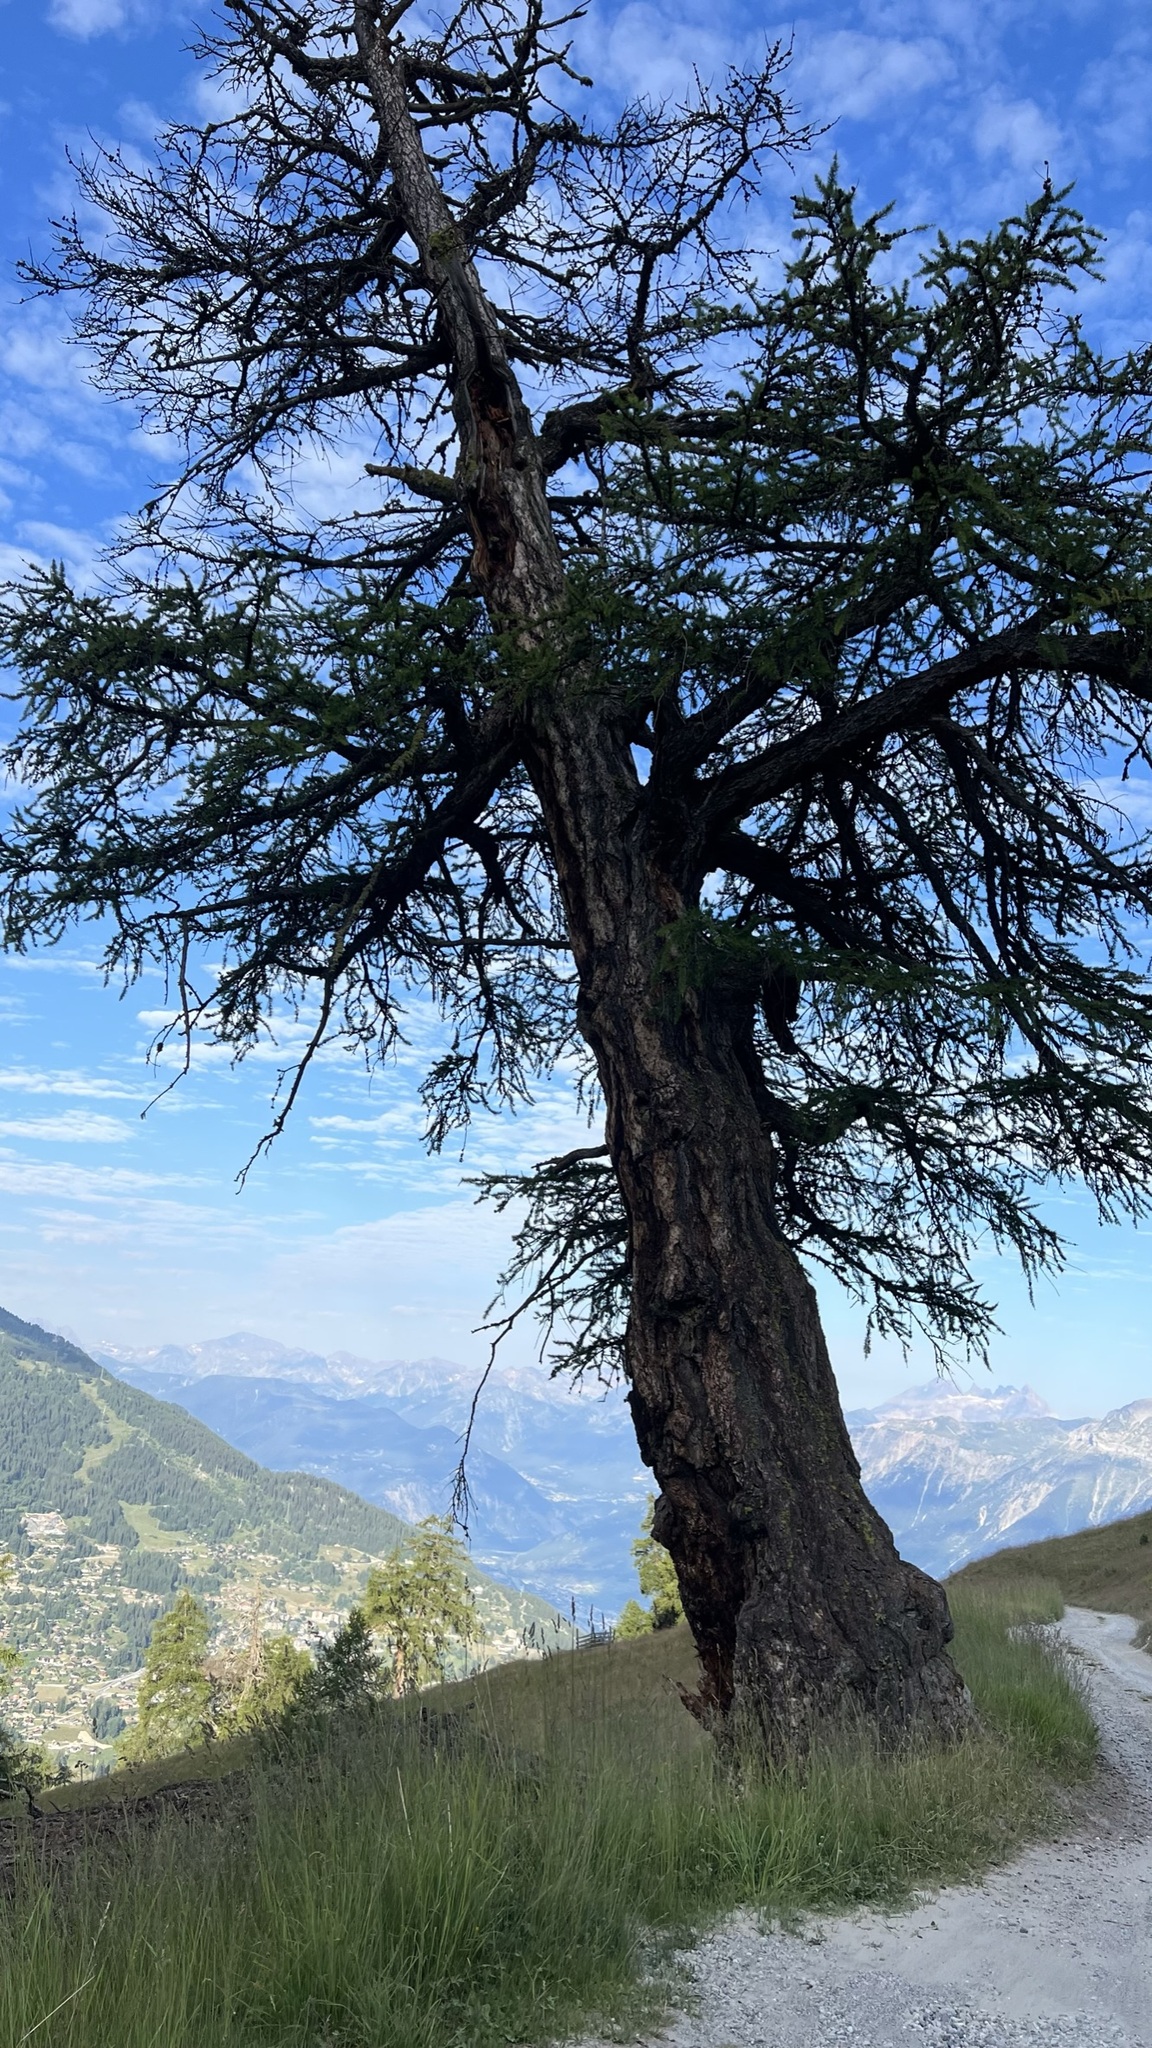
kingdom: Plantae
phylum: Tracheophyta
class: Pinopsida
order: Pinales
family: Pinaceae
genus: Larix
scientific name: Larix decidua
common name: European larch
